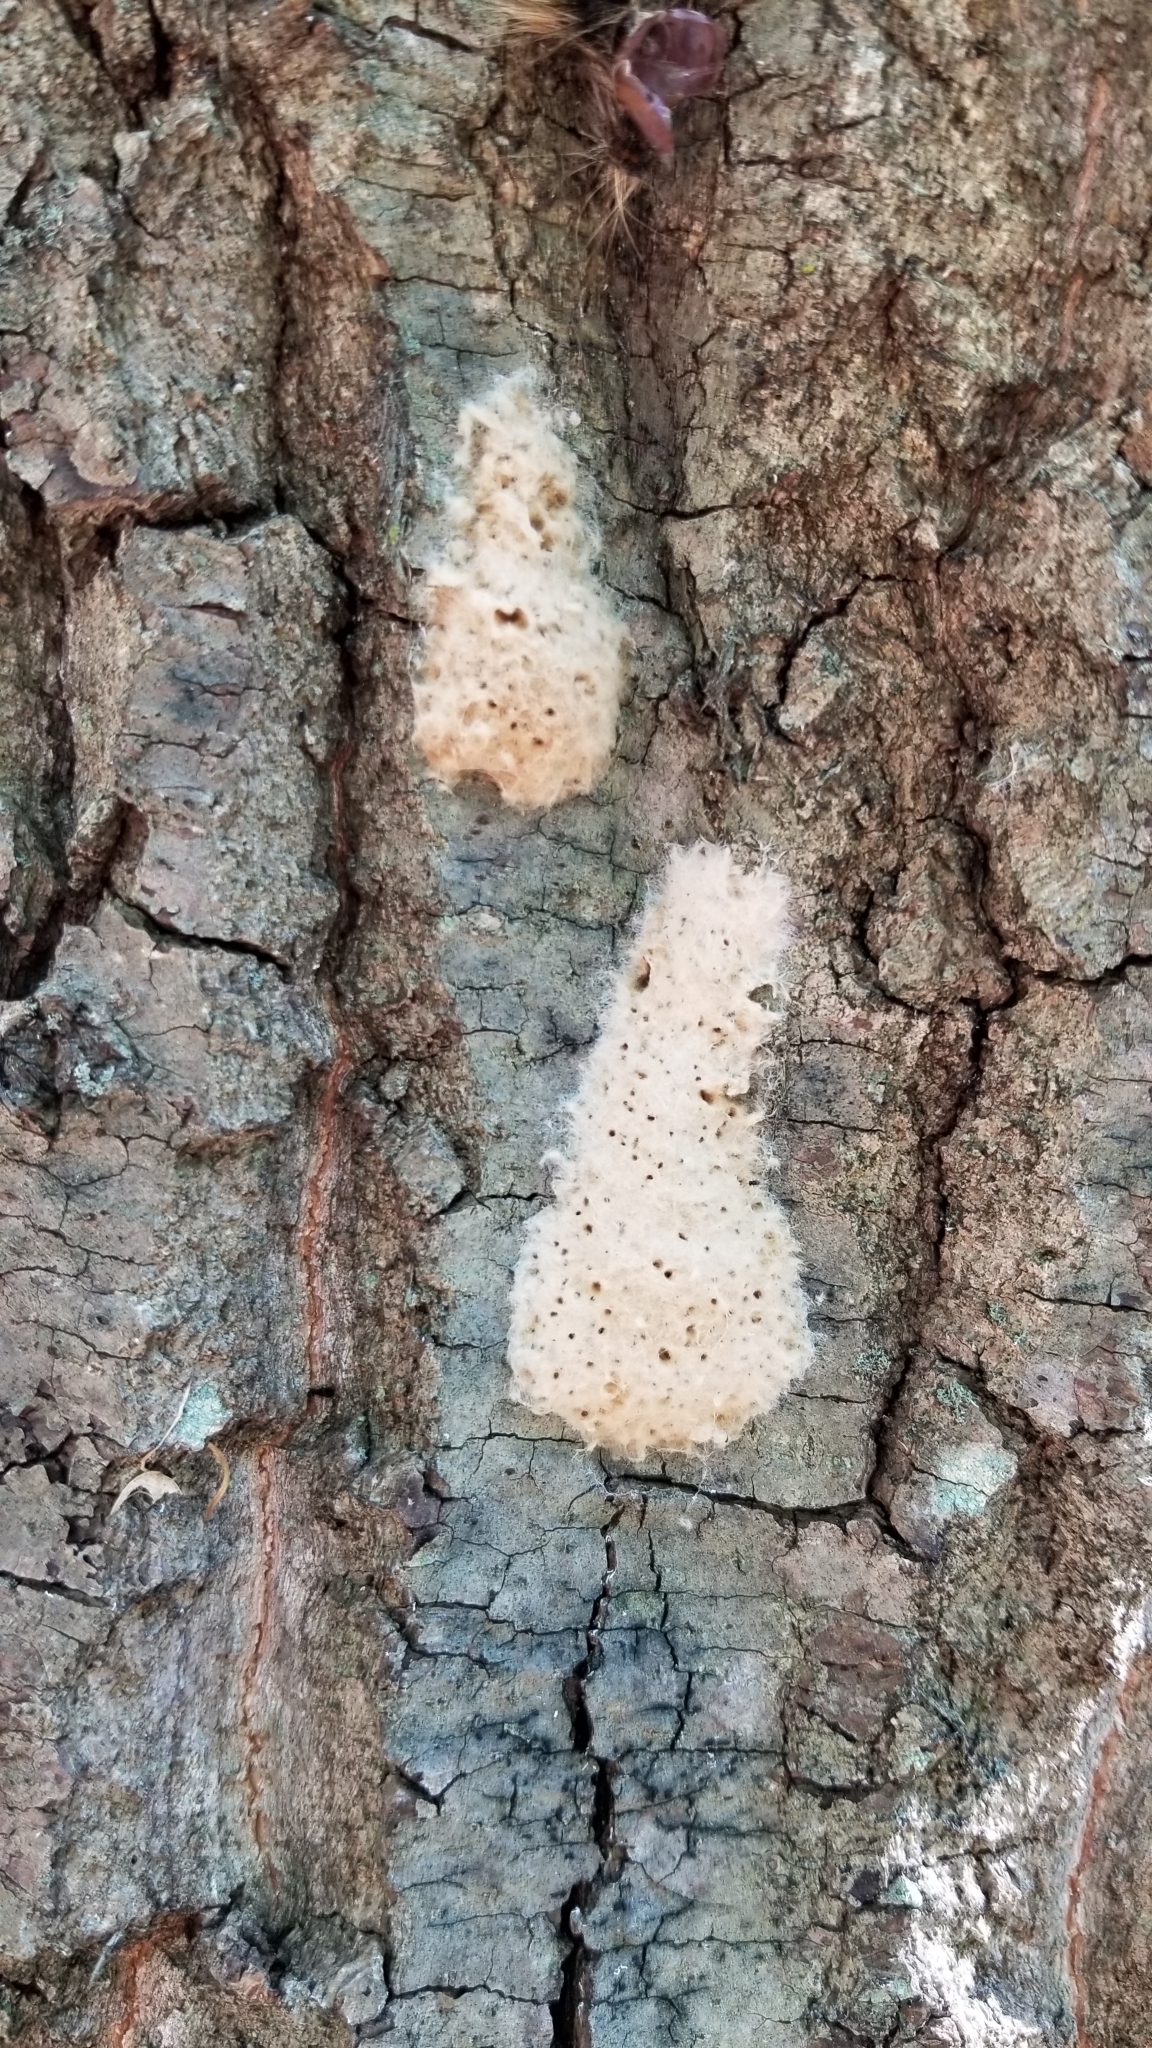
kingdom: Animalia
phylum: Arthropoda
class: Insecta
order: Lepidoptera
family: Erebidae
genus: Lymantria
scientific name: Lymantria dispar
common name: Gypsy moth
